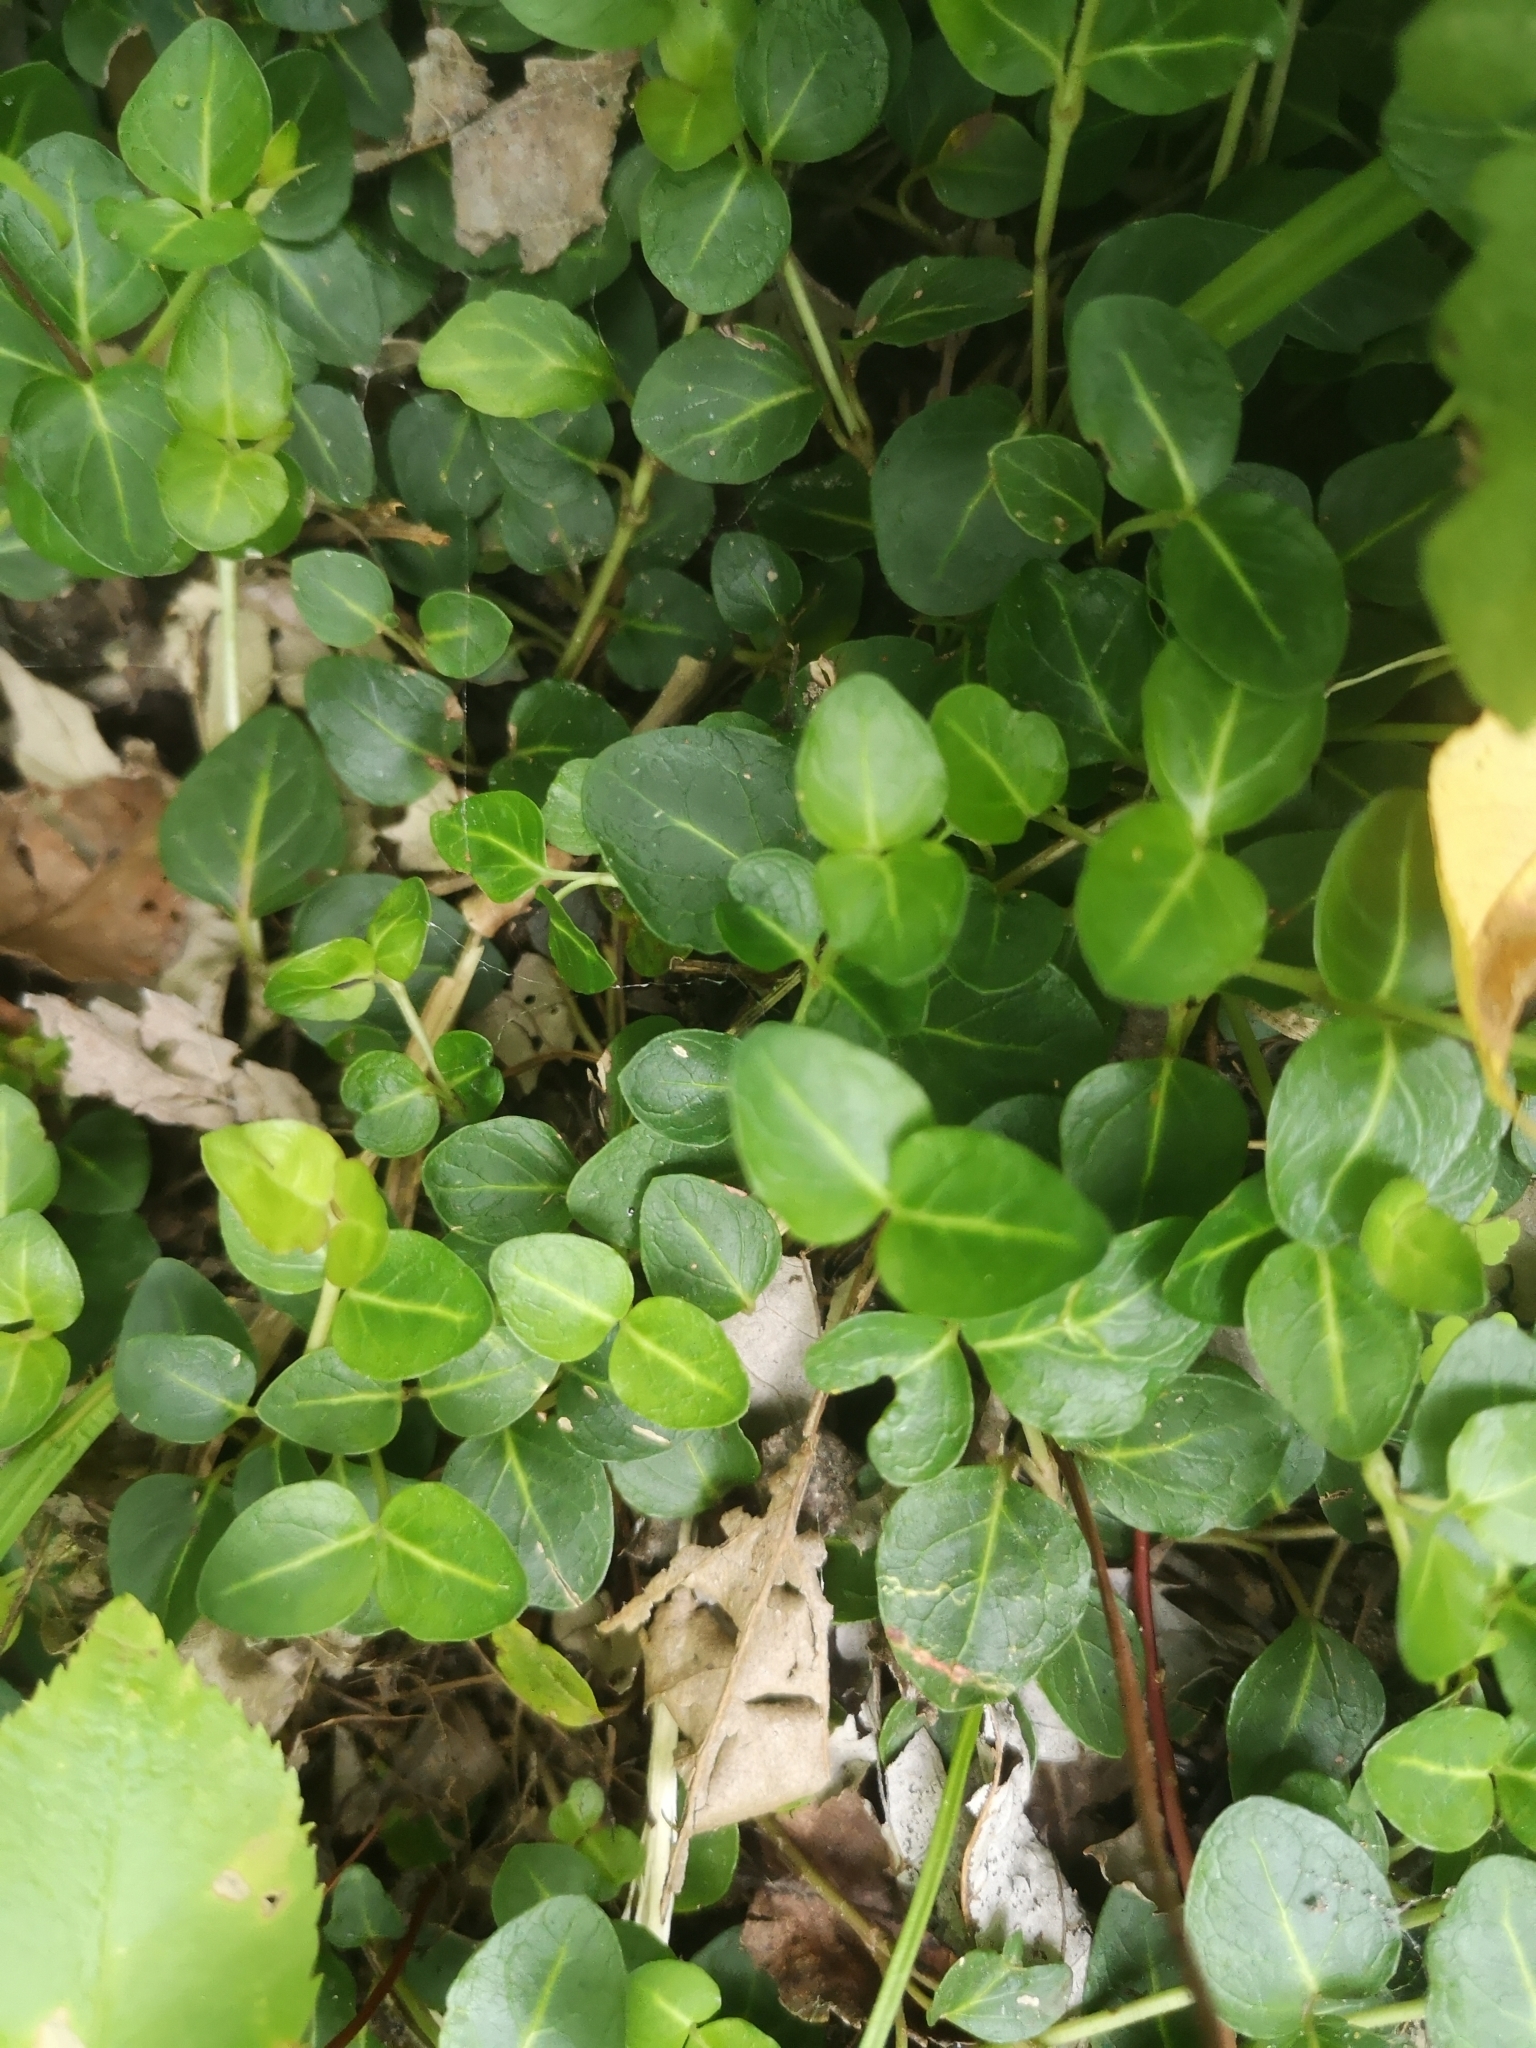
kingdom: Plantae
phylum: Tracheophyta
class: Magnoliopsida
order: Gentianales
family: Rubiaceae
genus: Mitchella
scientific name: Mitchella repens
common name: Partridge-berry
